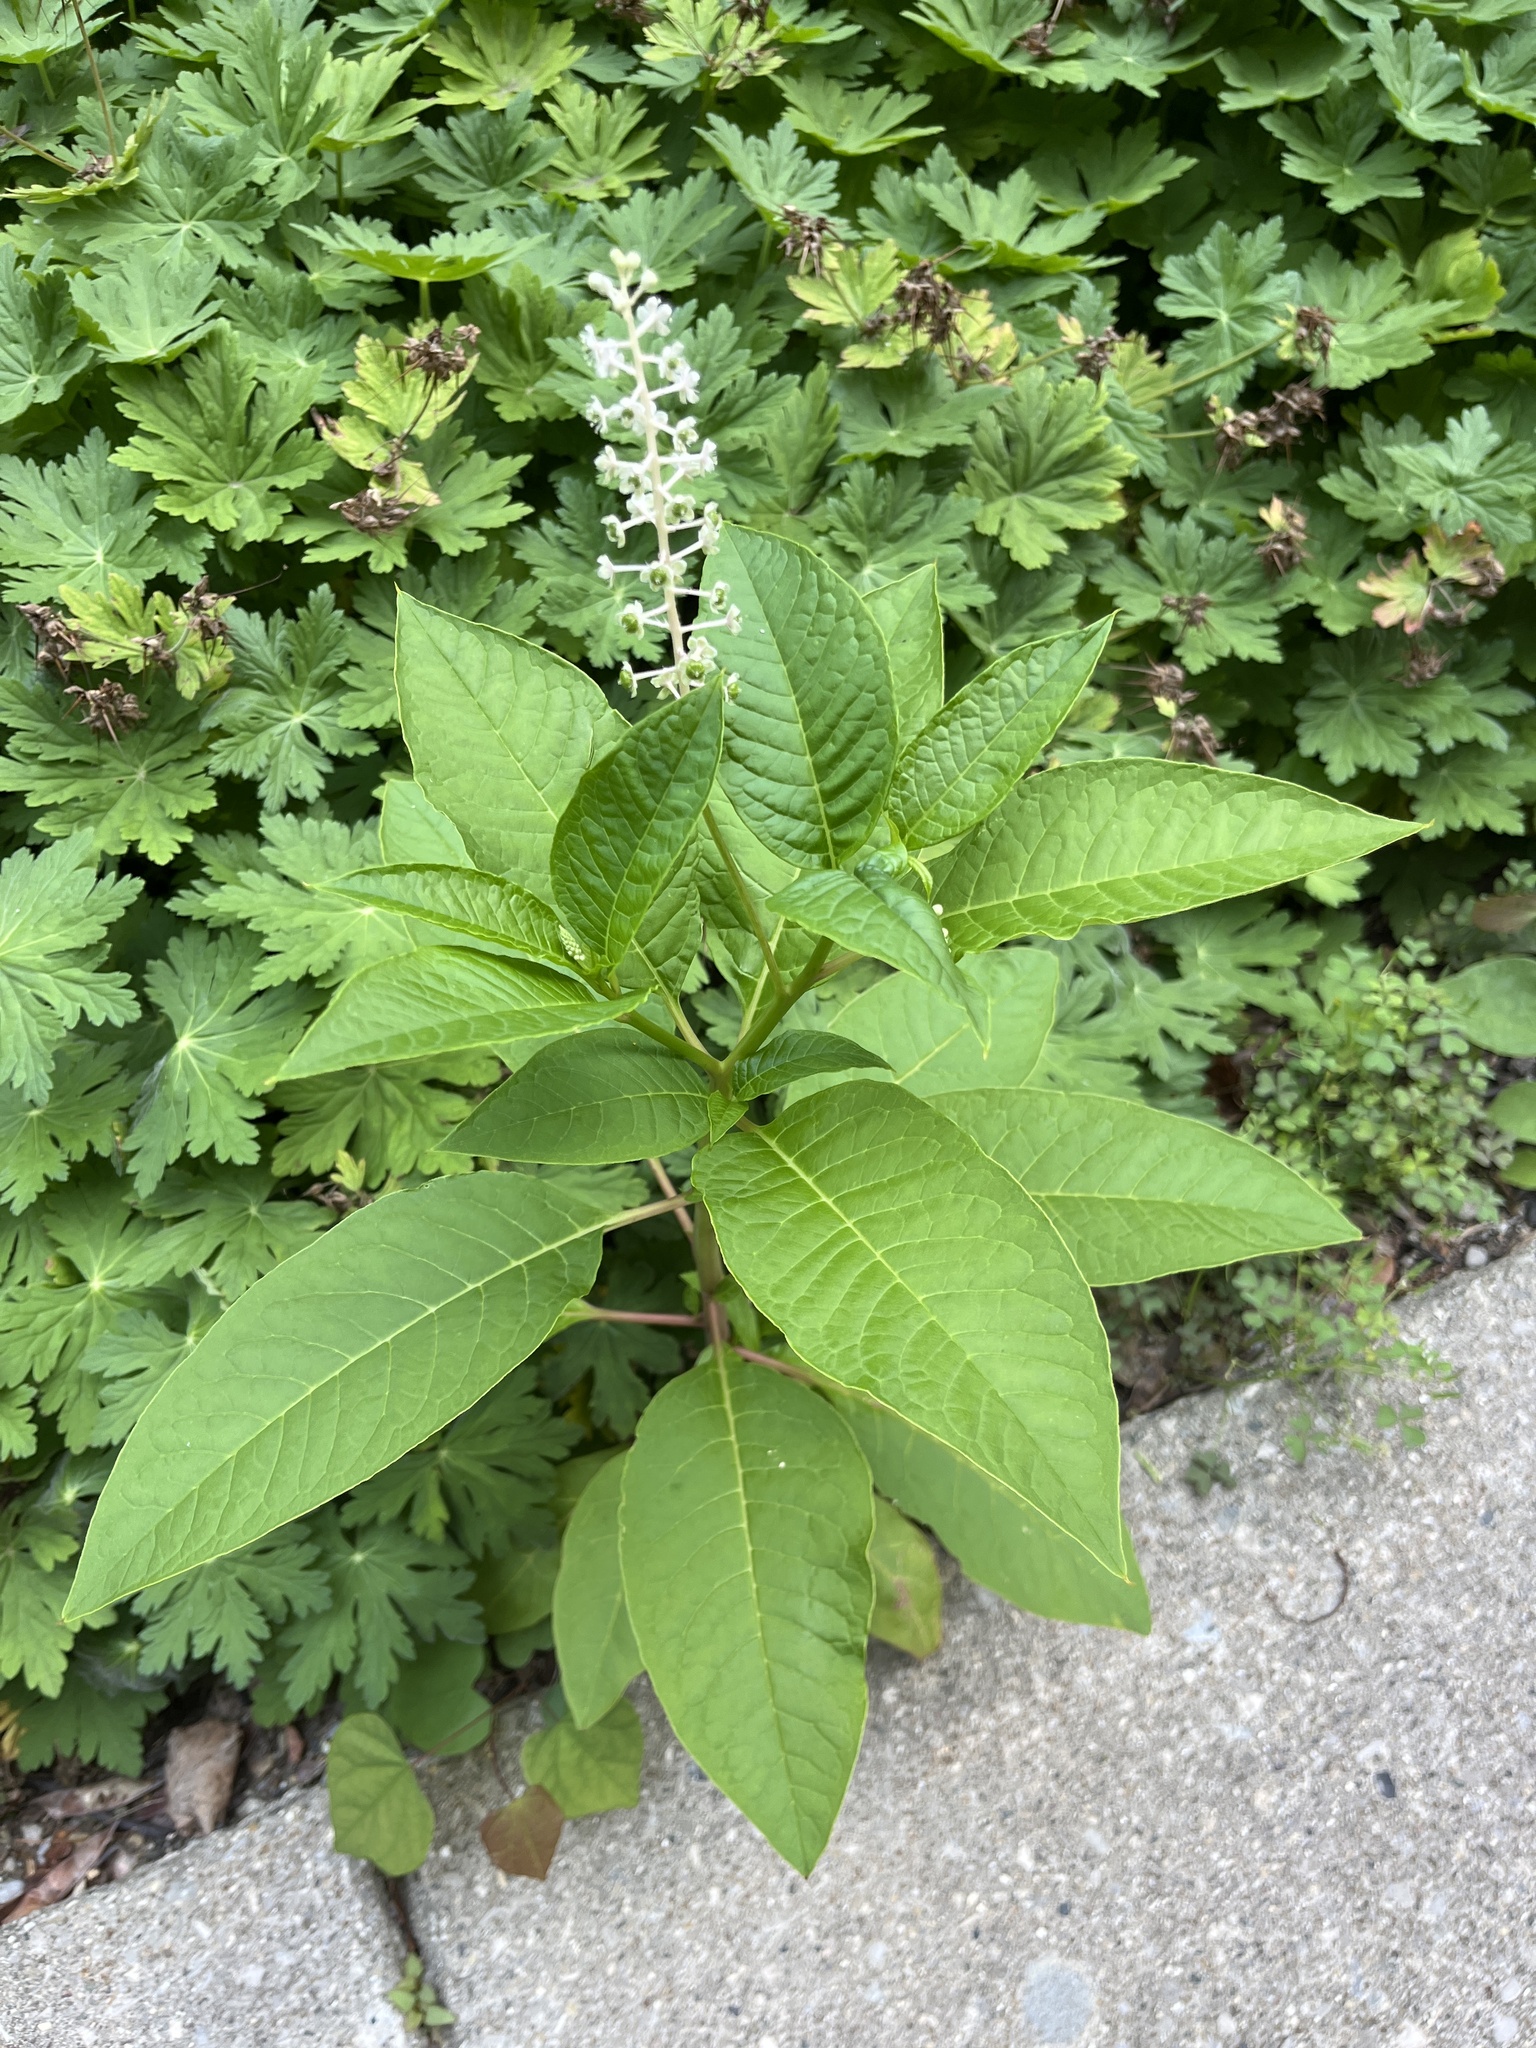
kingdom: Plantae
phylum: Tracheophyta
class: Magnoliopsida
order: Caryophyllales
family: Phytolaccaceae
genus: Phytolacca
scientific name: Phytolacca americana
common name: American pokeweed
